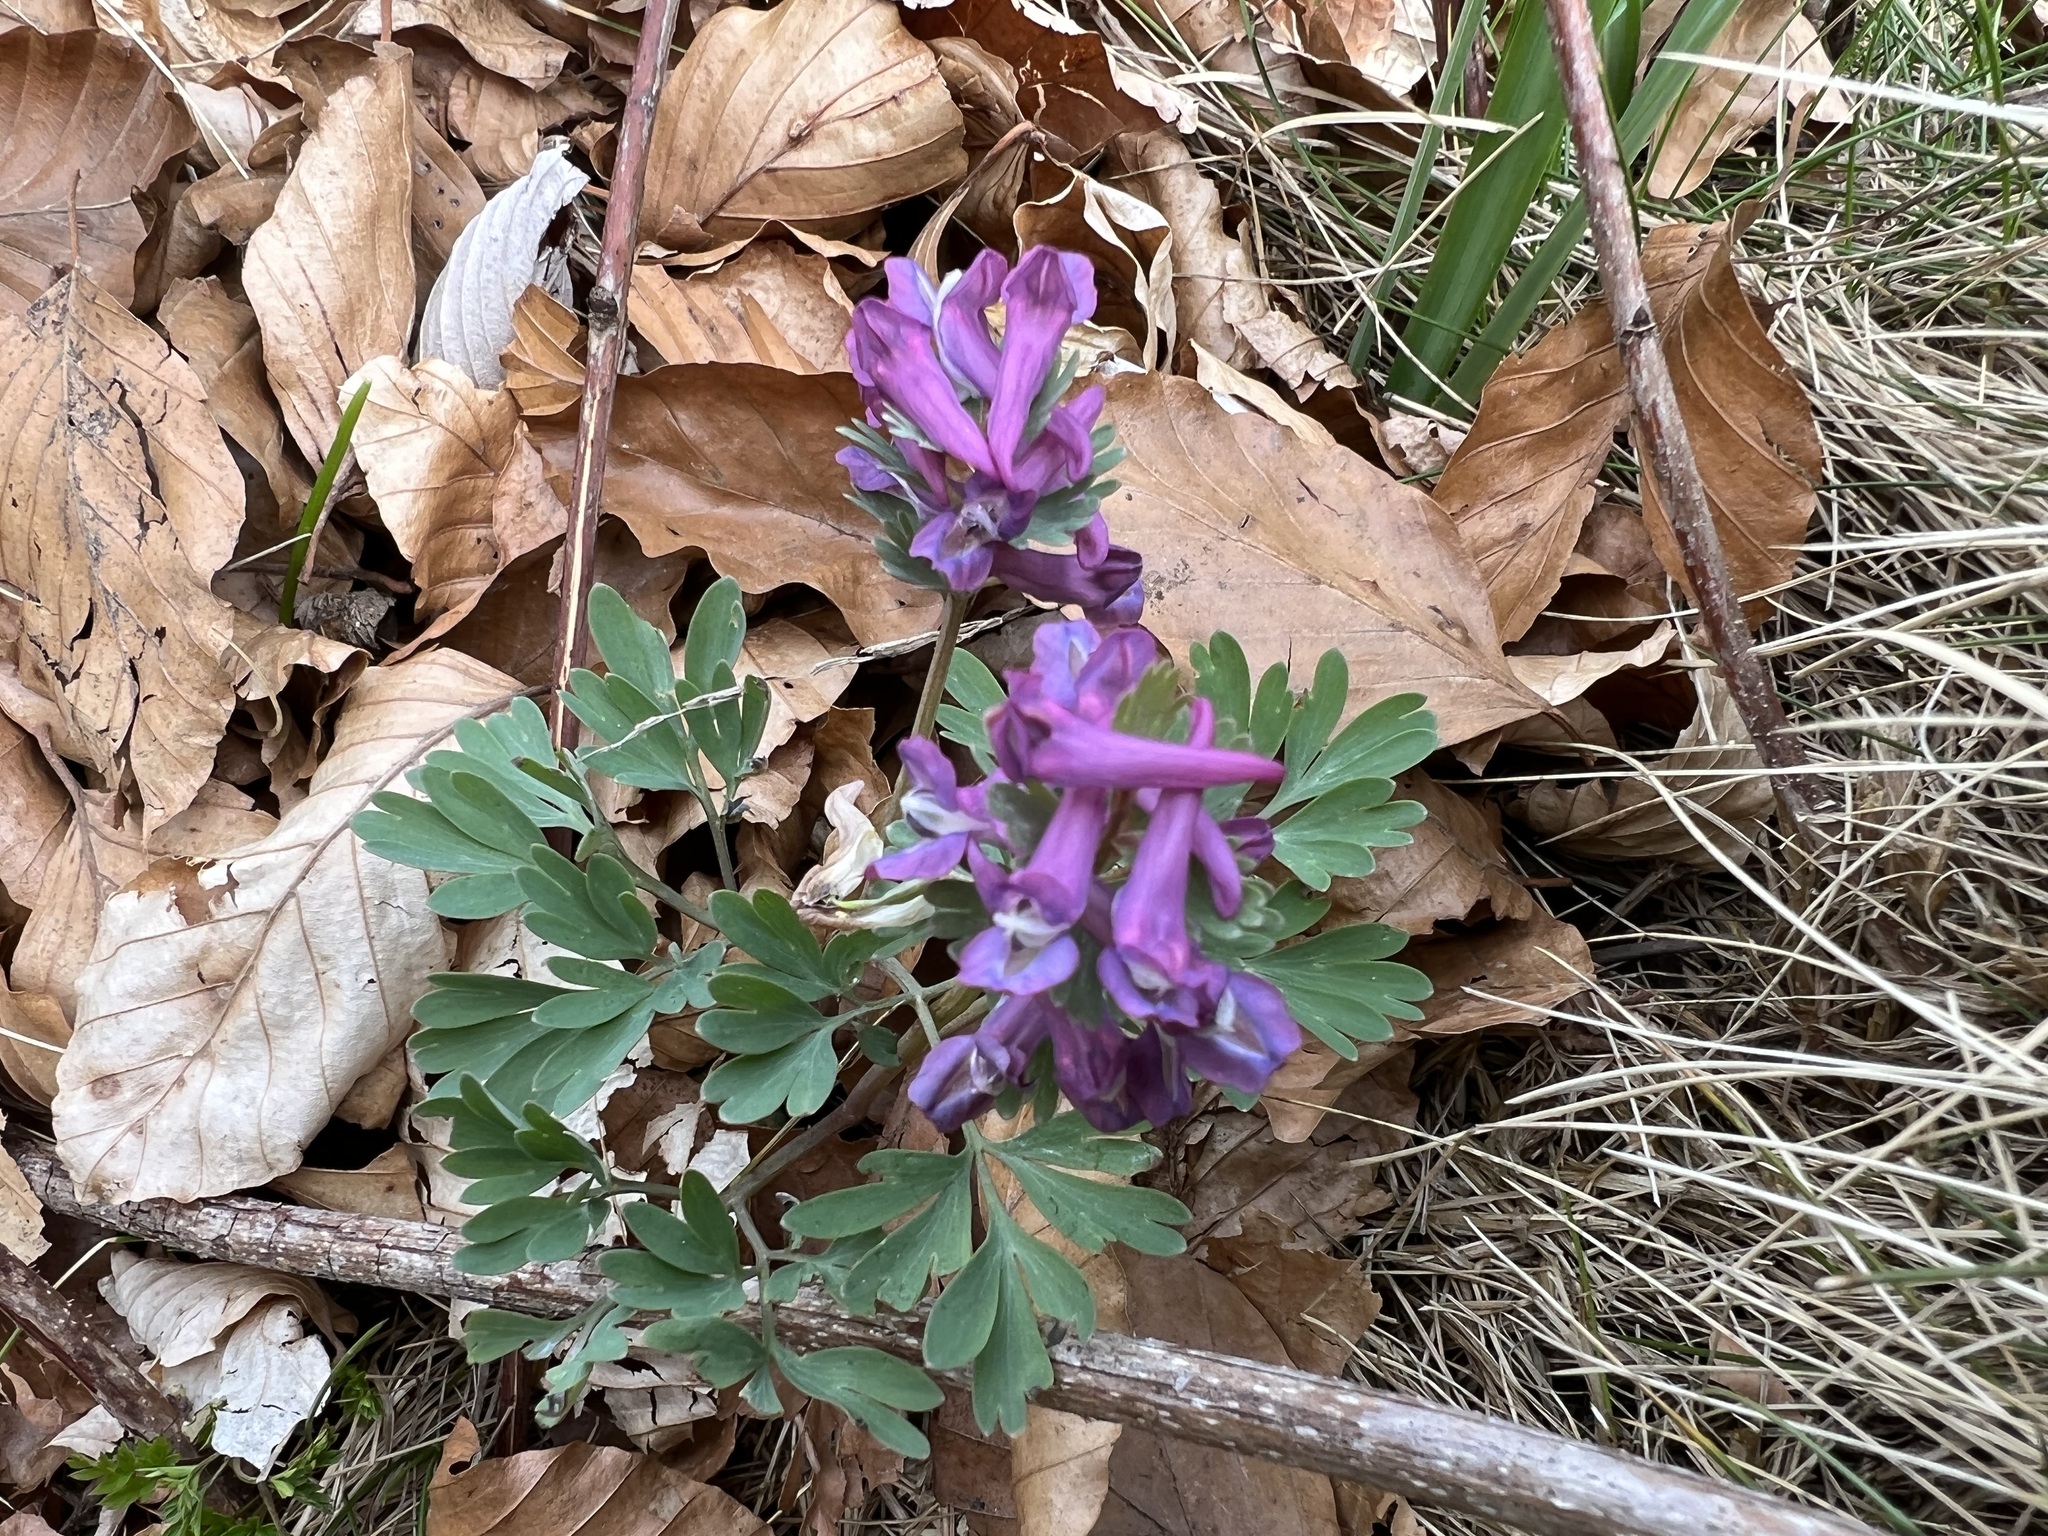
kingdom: Plantae
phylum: Tracheophyta
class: Magnoliopsida
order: Ranunculales
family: Papaveraceae
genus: Corydalis
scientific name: Corydalis solida
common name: Bird-in-a-bush
